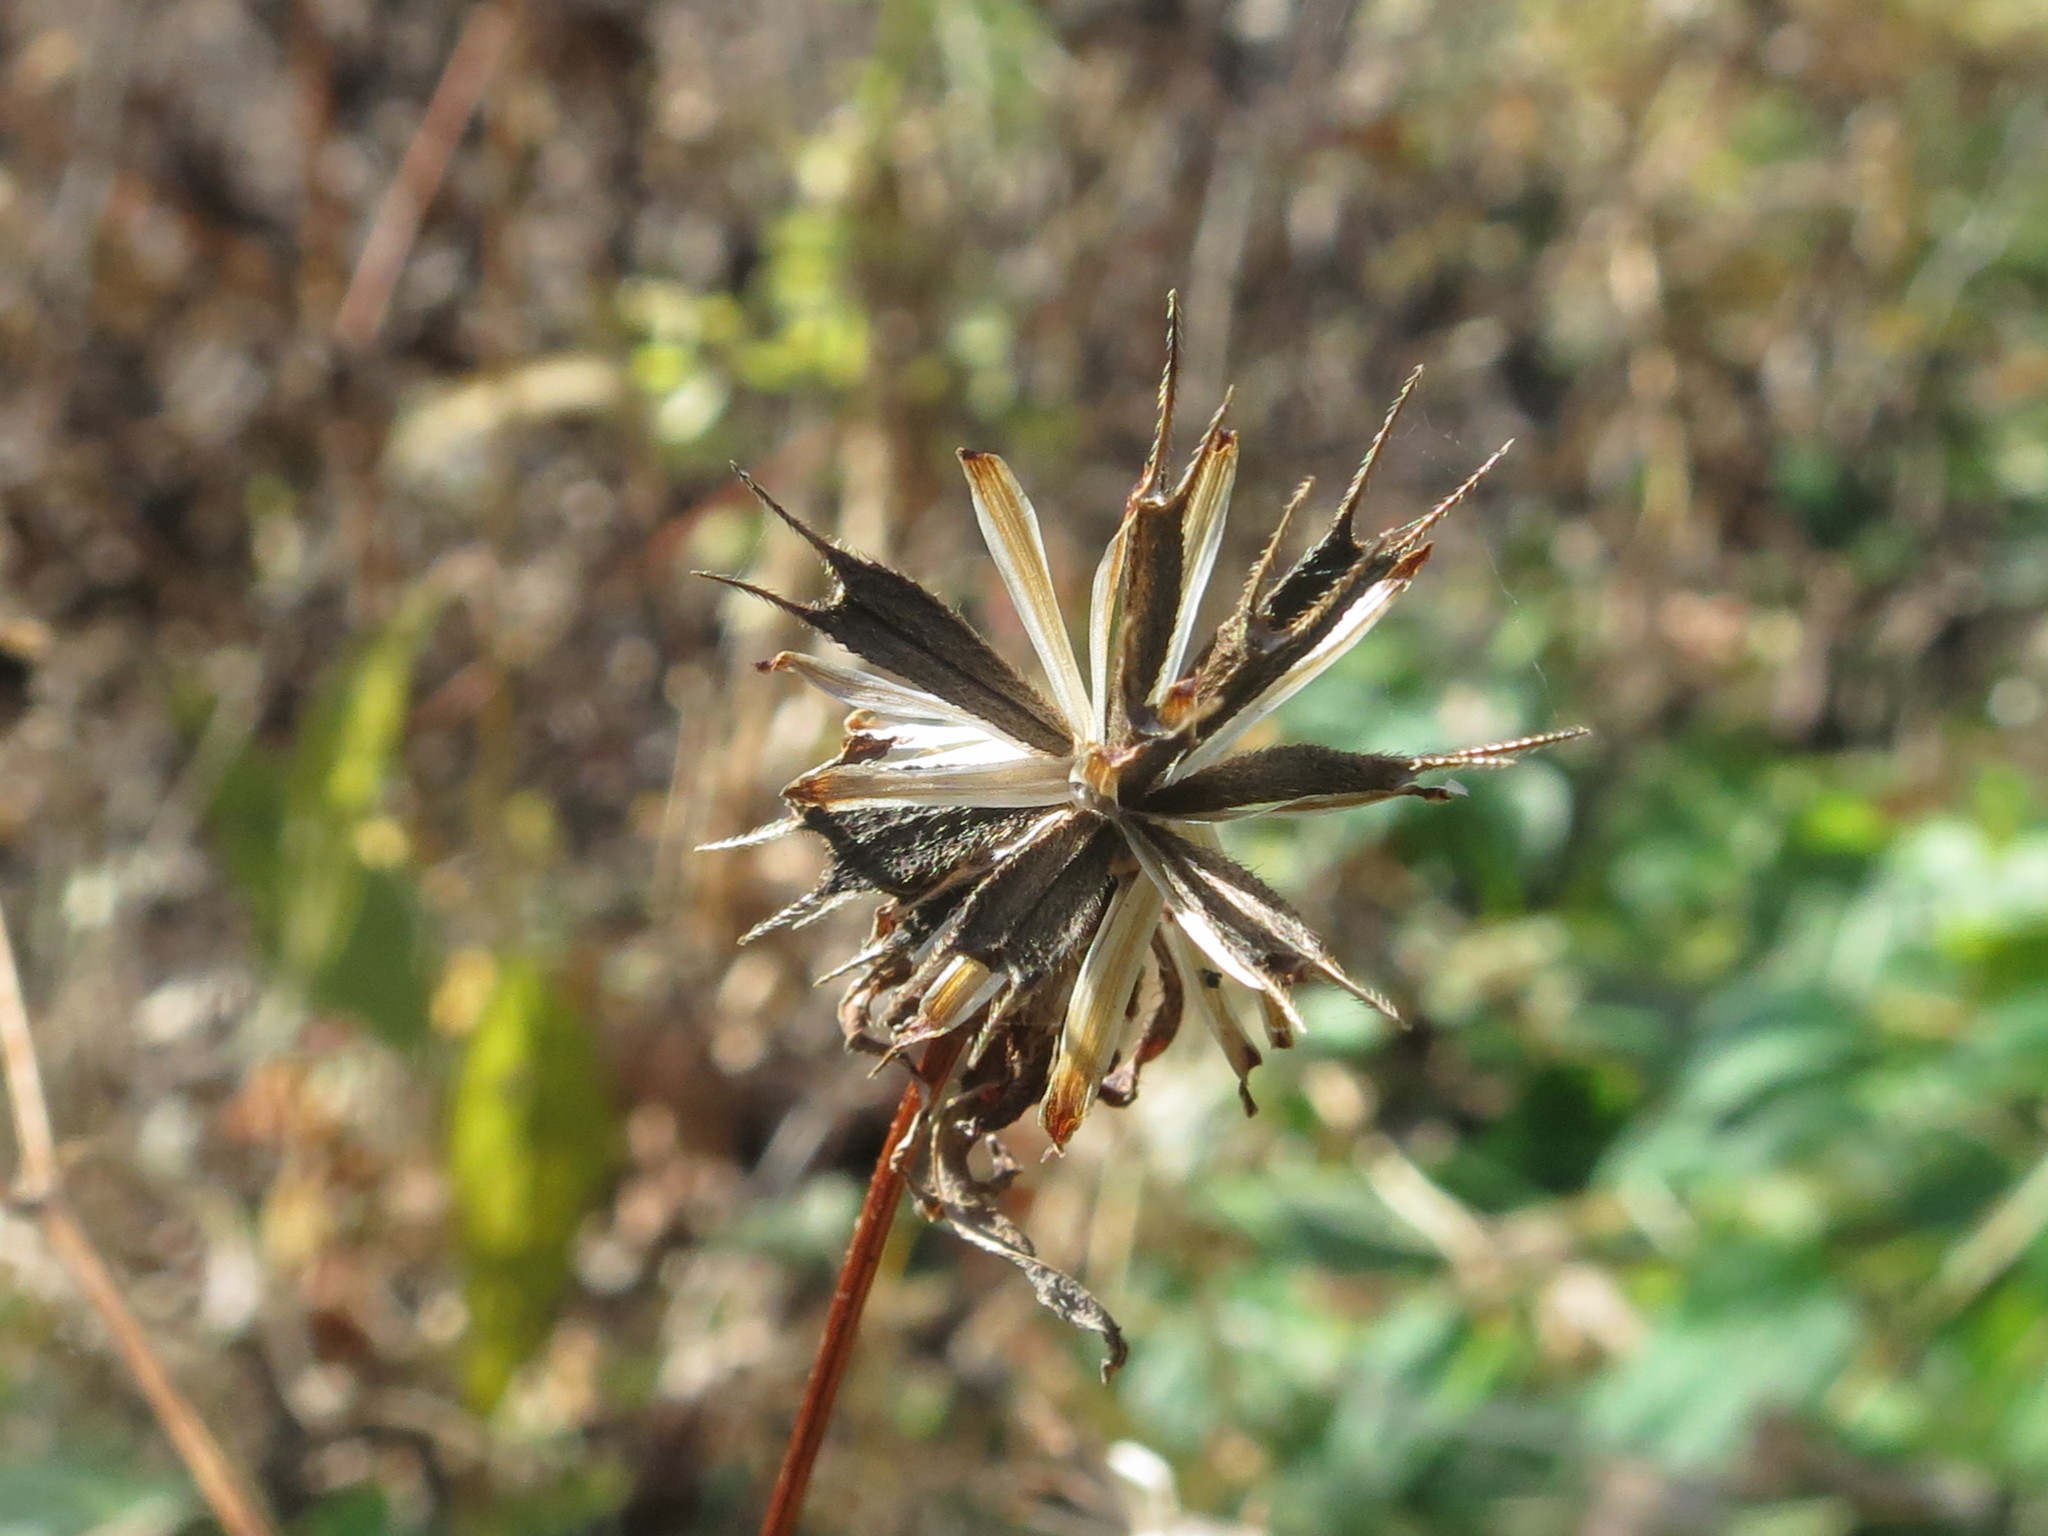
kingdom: Plantae
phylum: Tracheophyta
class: Magnoliopsida
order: Asterales
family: Asteraceae
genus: Bidens
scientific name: Bidens frondosa
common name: Beggarticks
